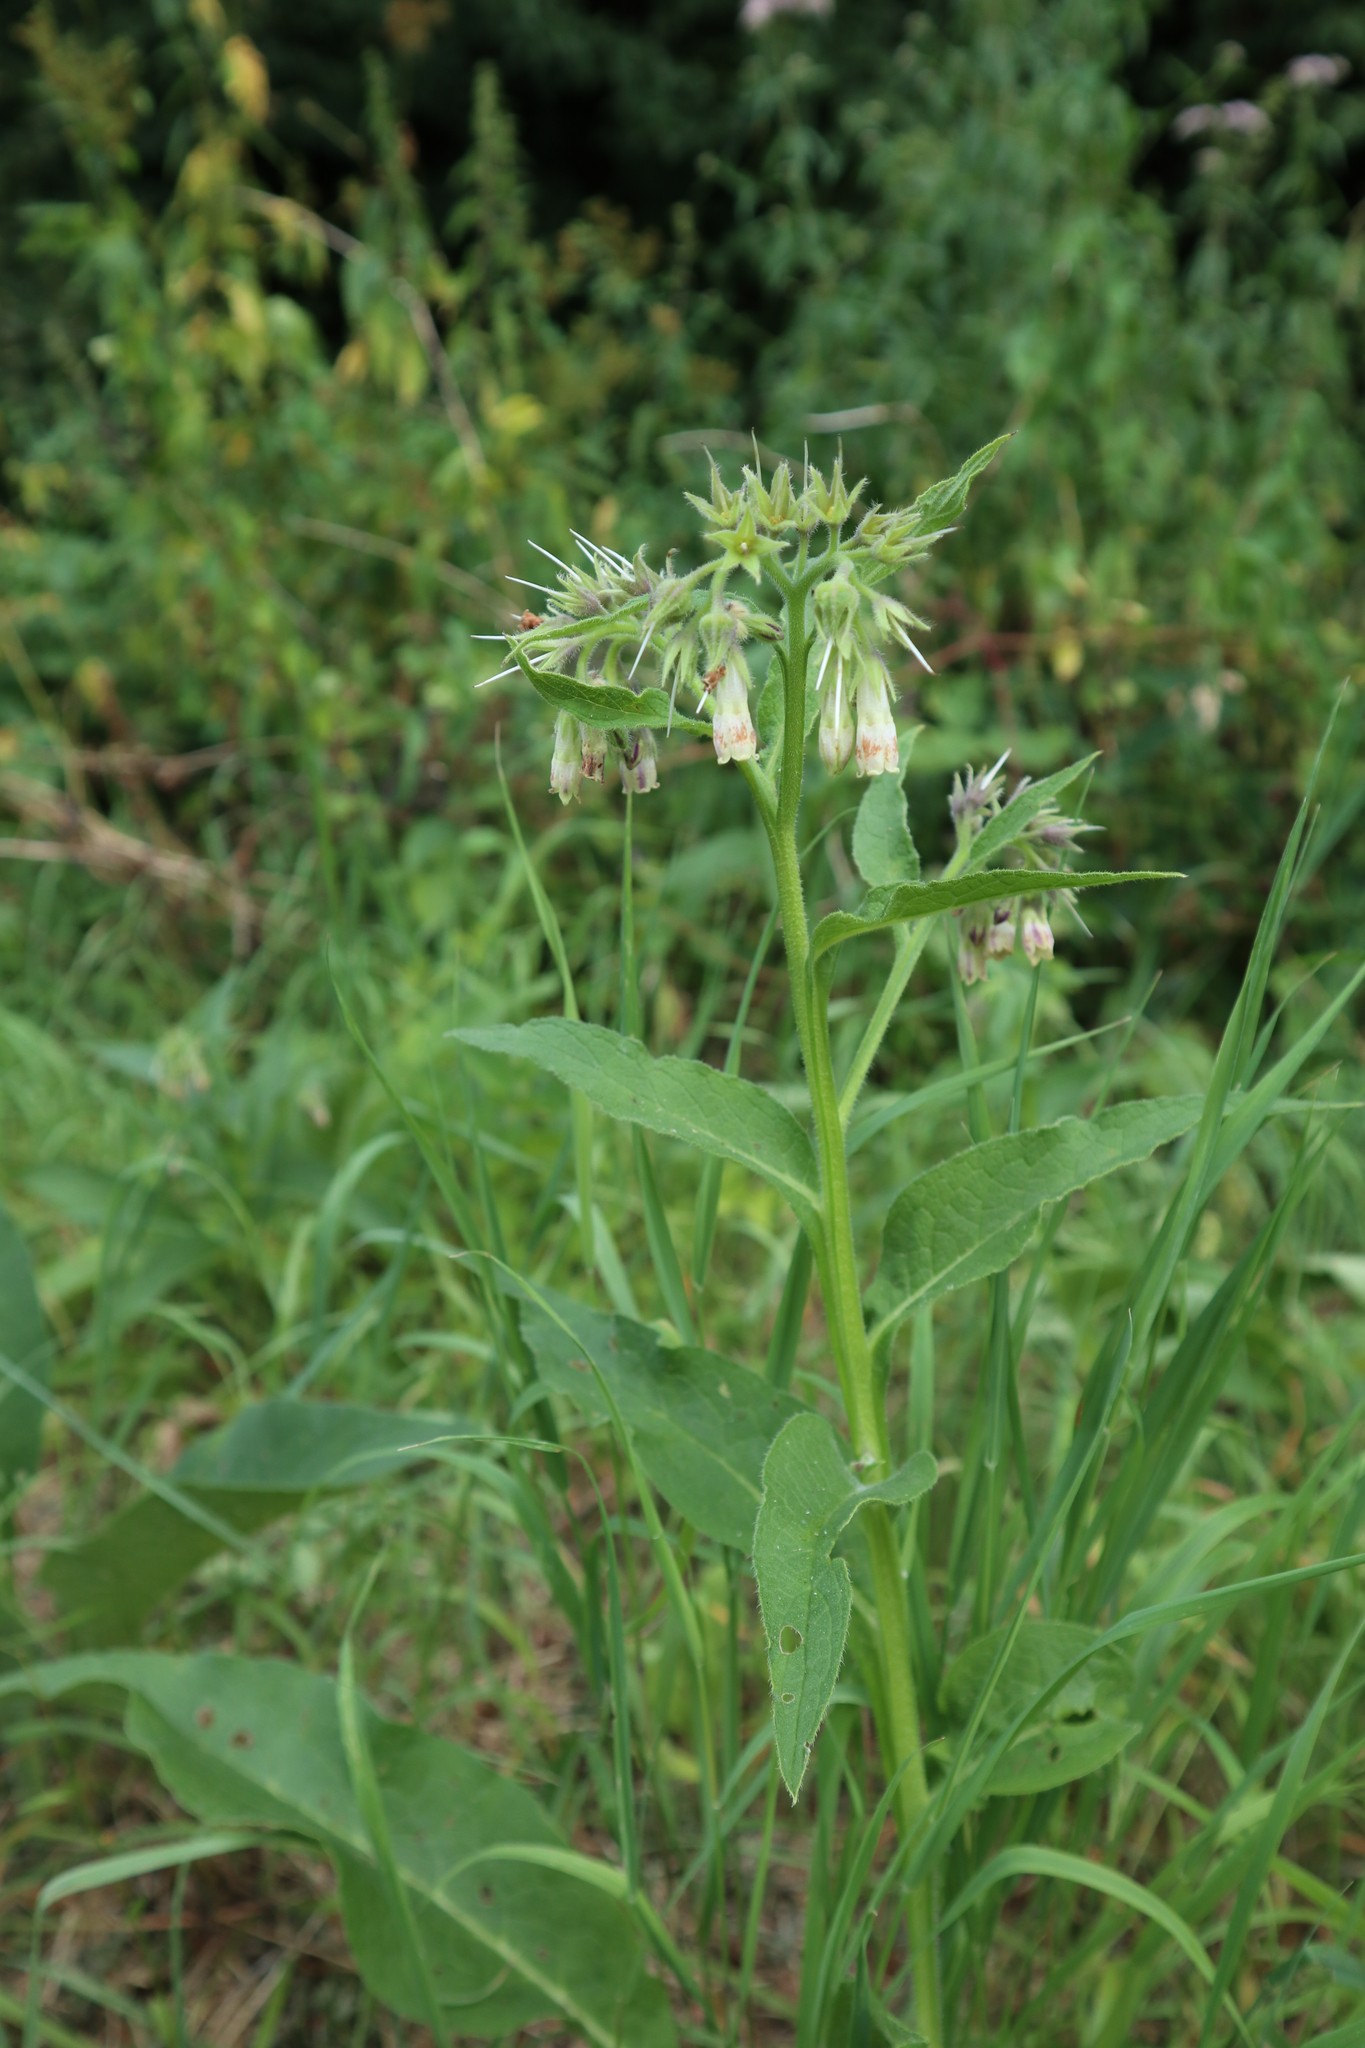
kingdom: Plantae
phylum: Tracheophyta
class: Magnoliopsida
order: Boraginales
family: Boraginaceae
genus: Symphytum
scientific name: Symphytum officinale
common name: Common comfrey
